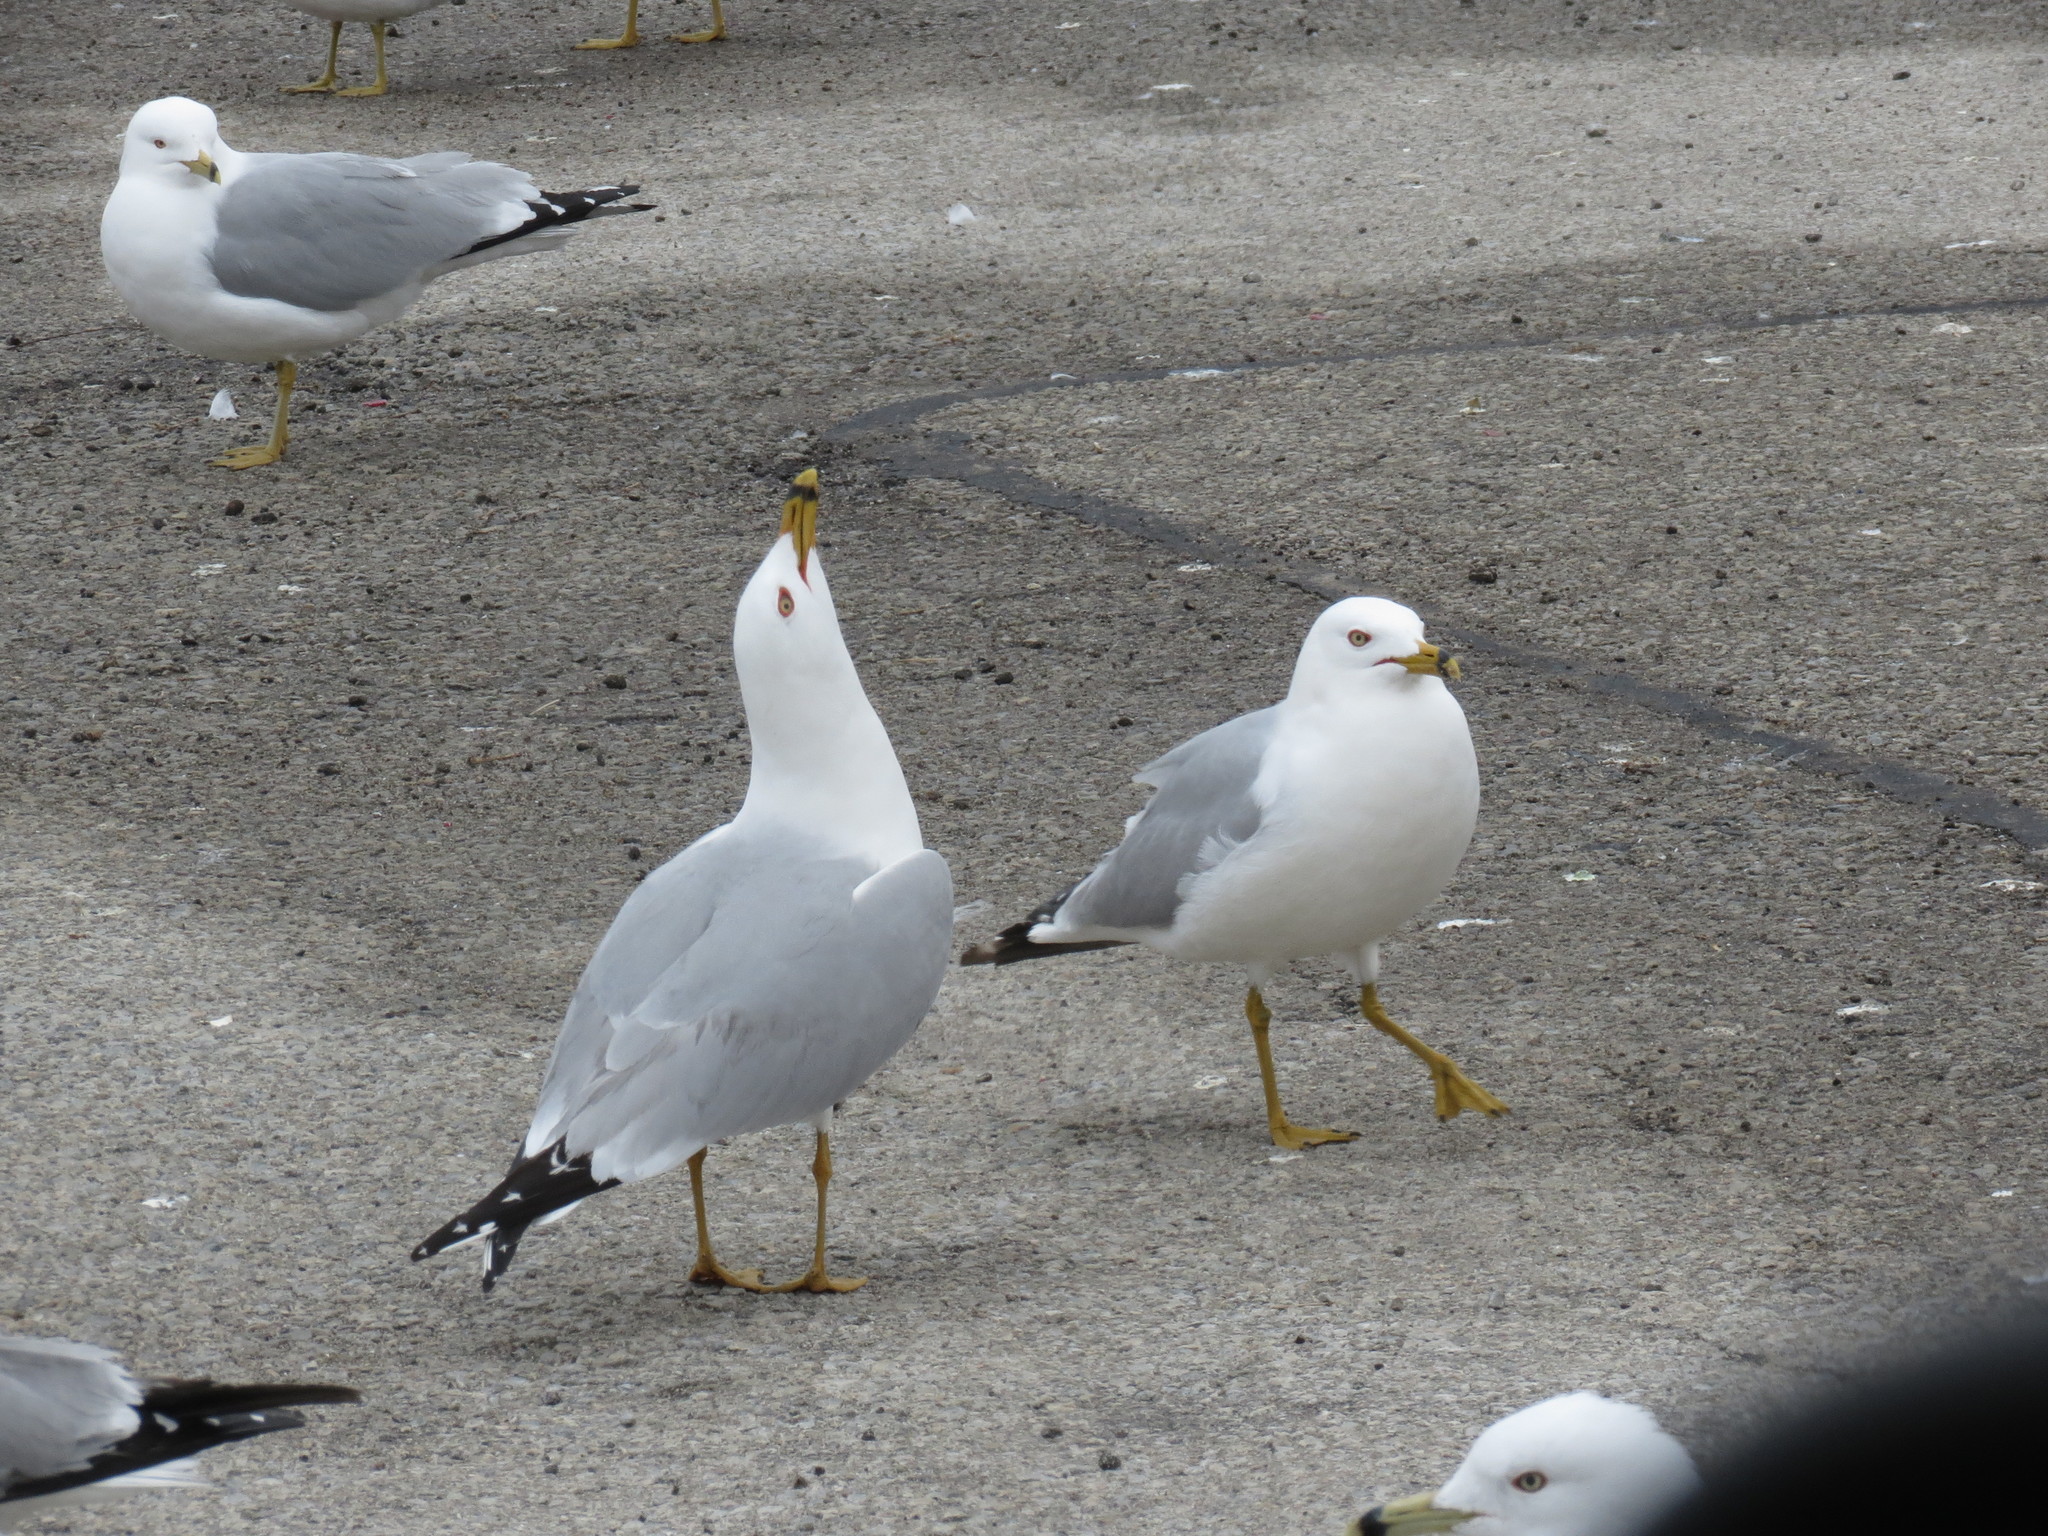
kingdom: Animalia
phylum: Chordata
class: Aves
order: Charadriiformes
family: Laridae
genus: Larus
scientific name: Larus delawarensis
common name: Ring-billed gull
